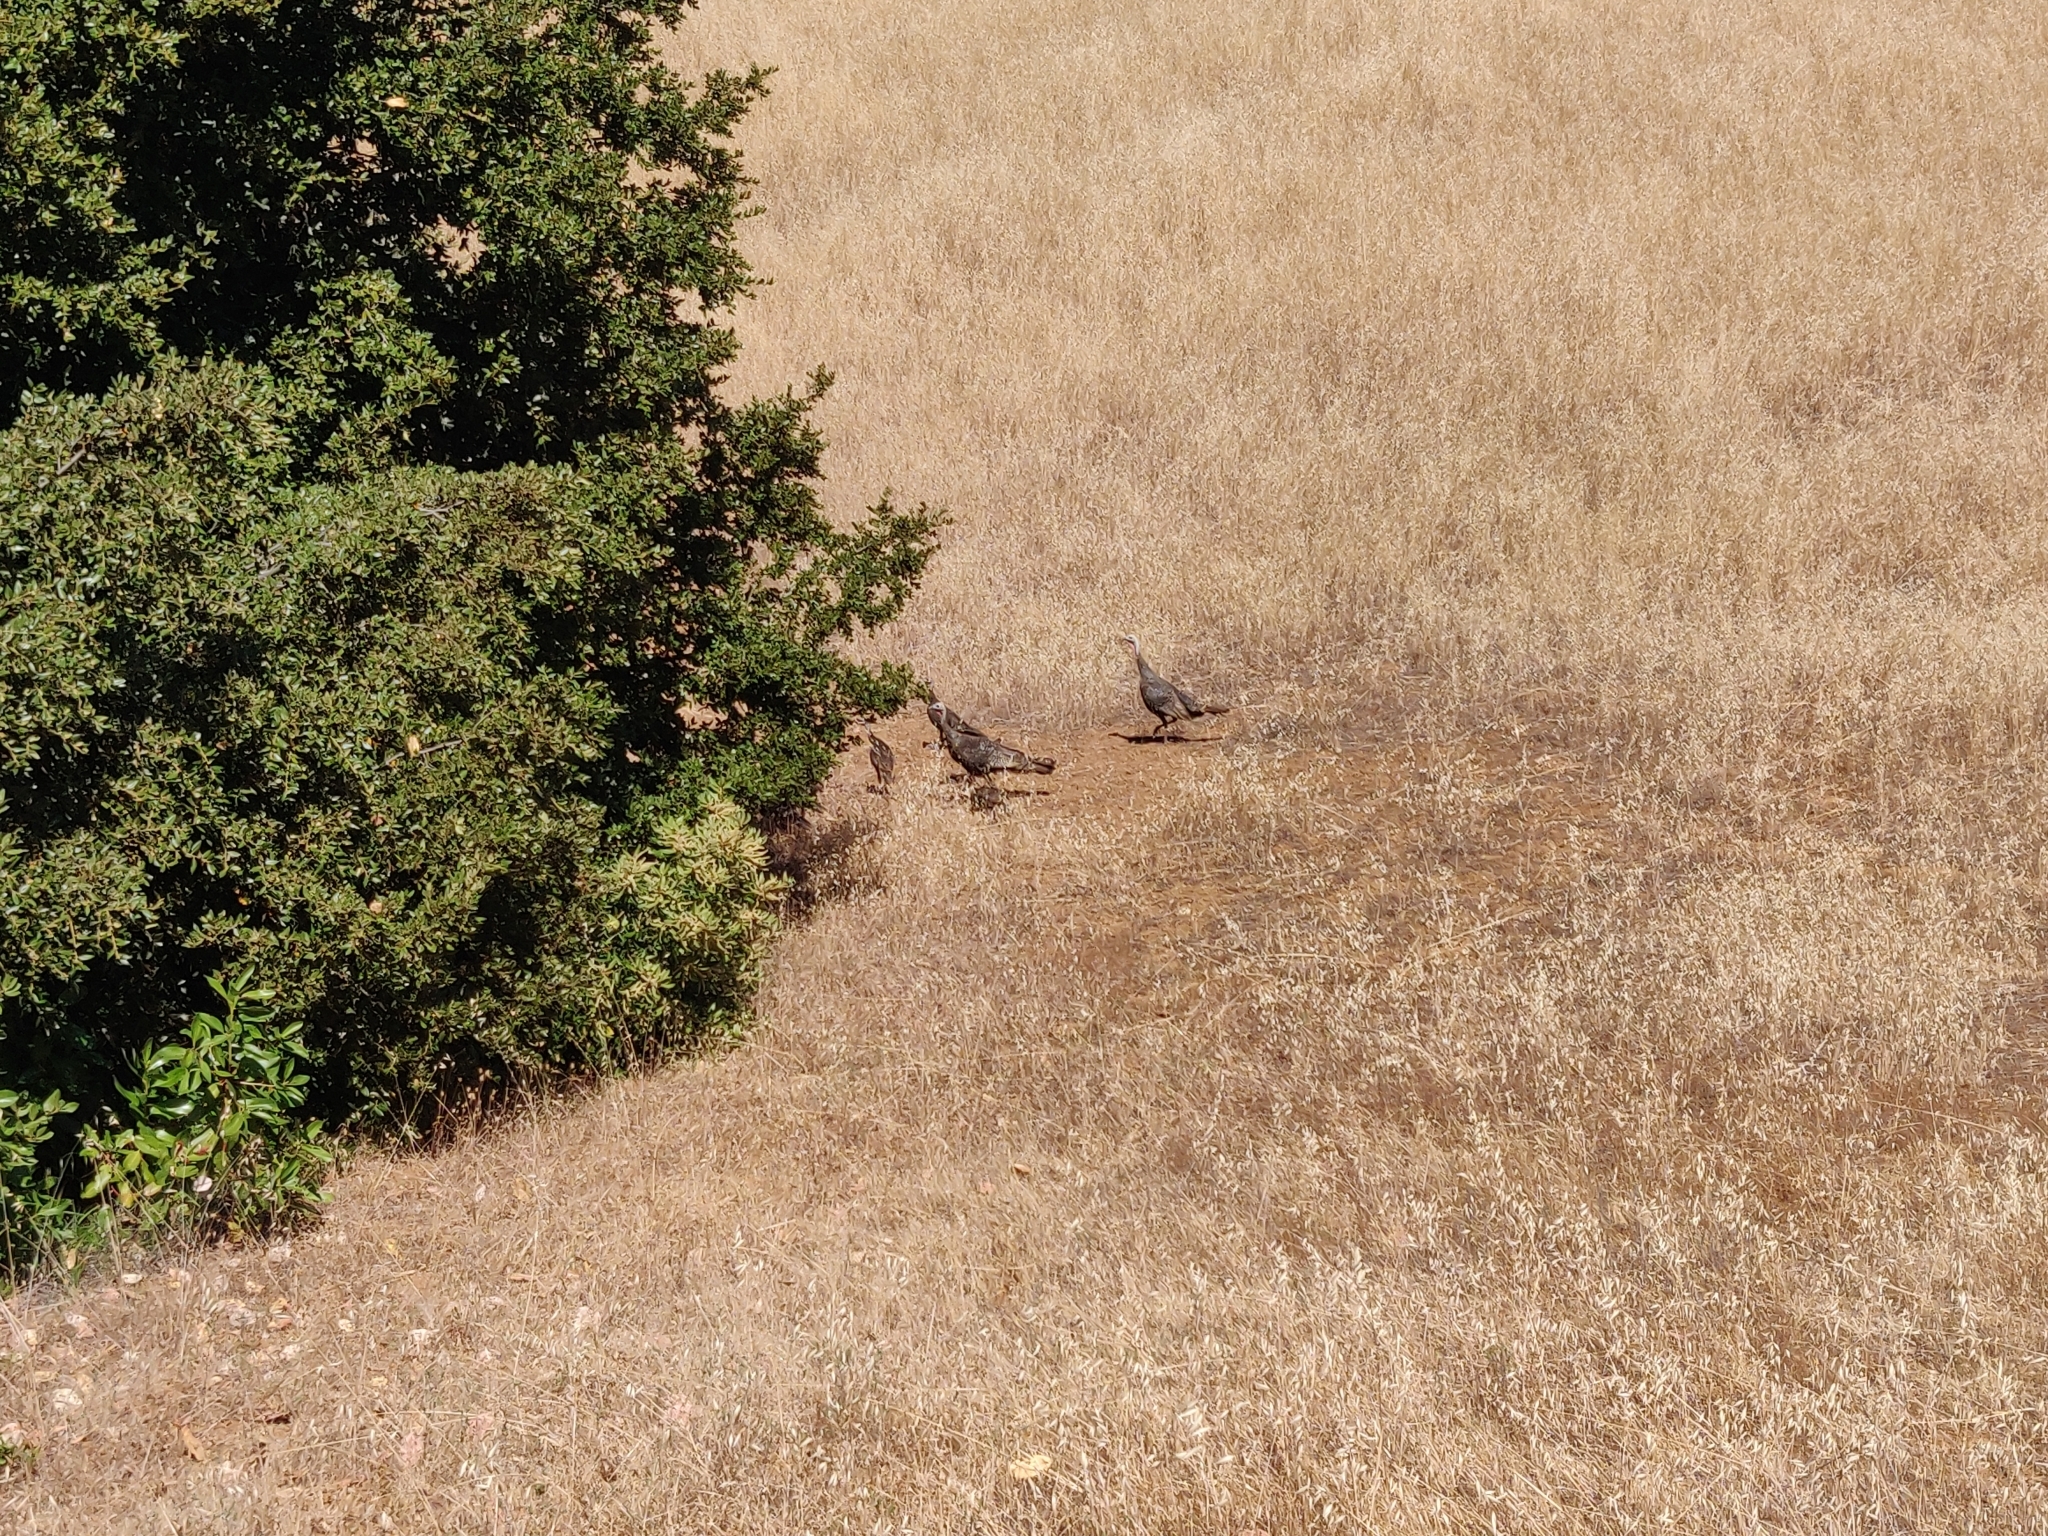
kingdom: Animalia
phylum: Chordata
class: Aves
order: Galliformes
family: Phasianidae
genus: Meleagris
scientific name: Meleagris gallopavo
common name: Wild turkey
